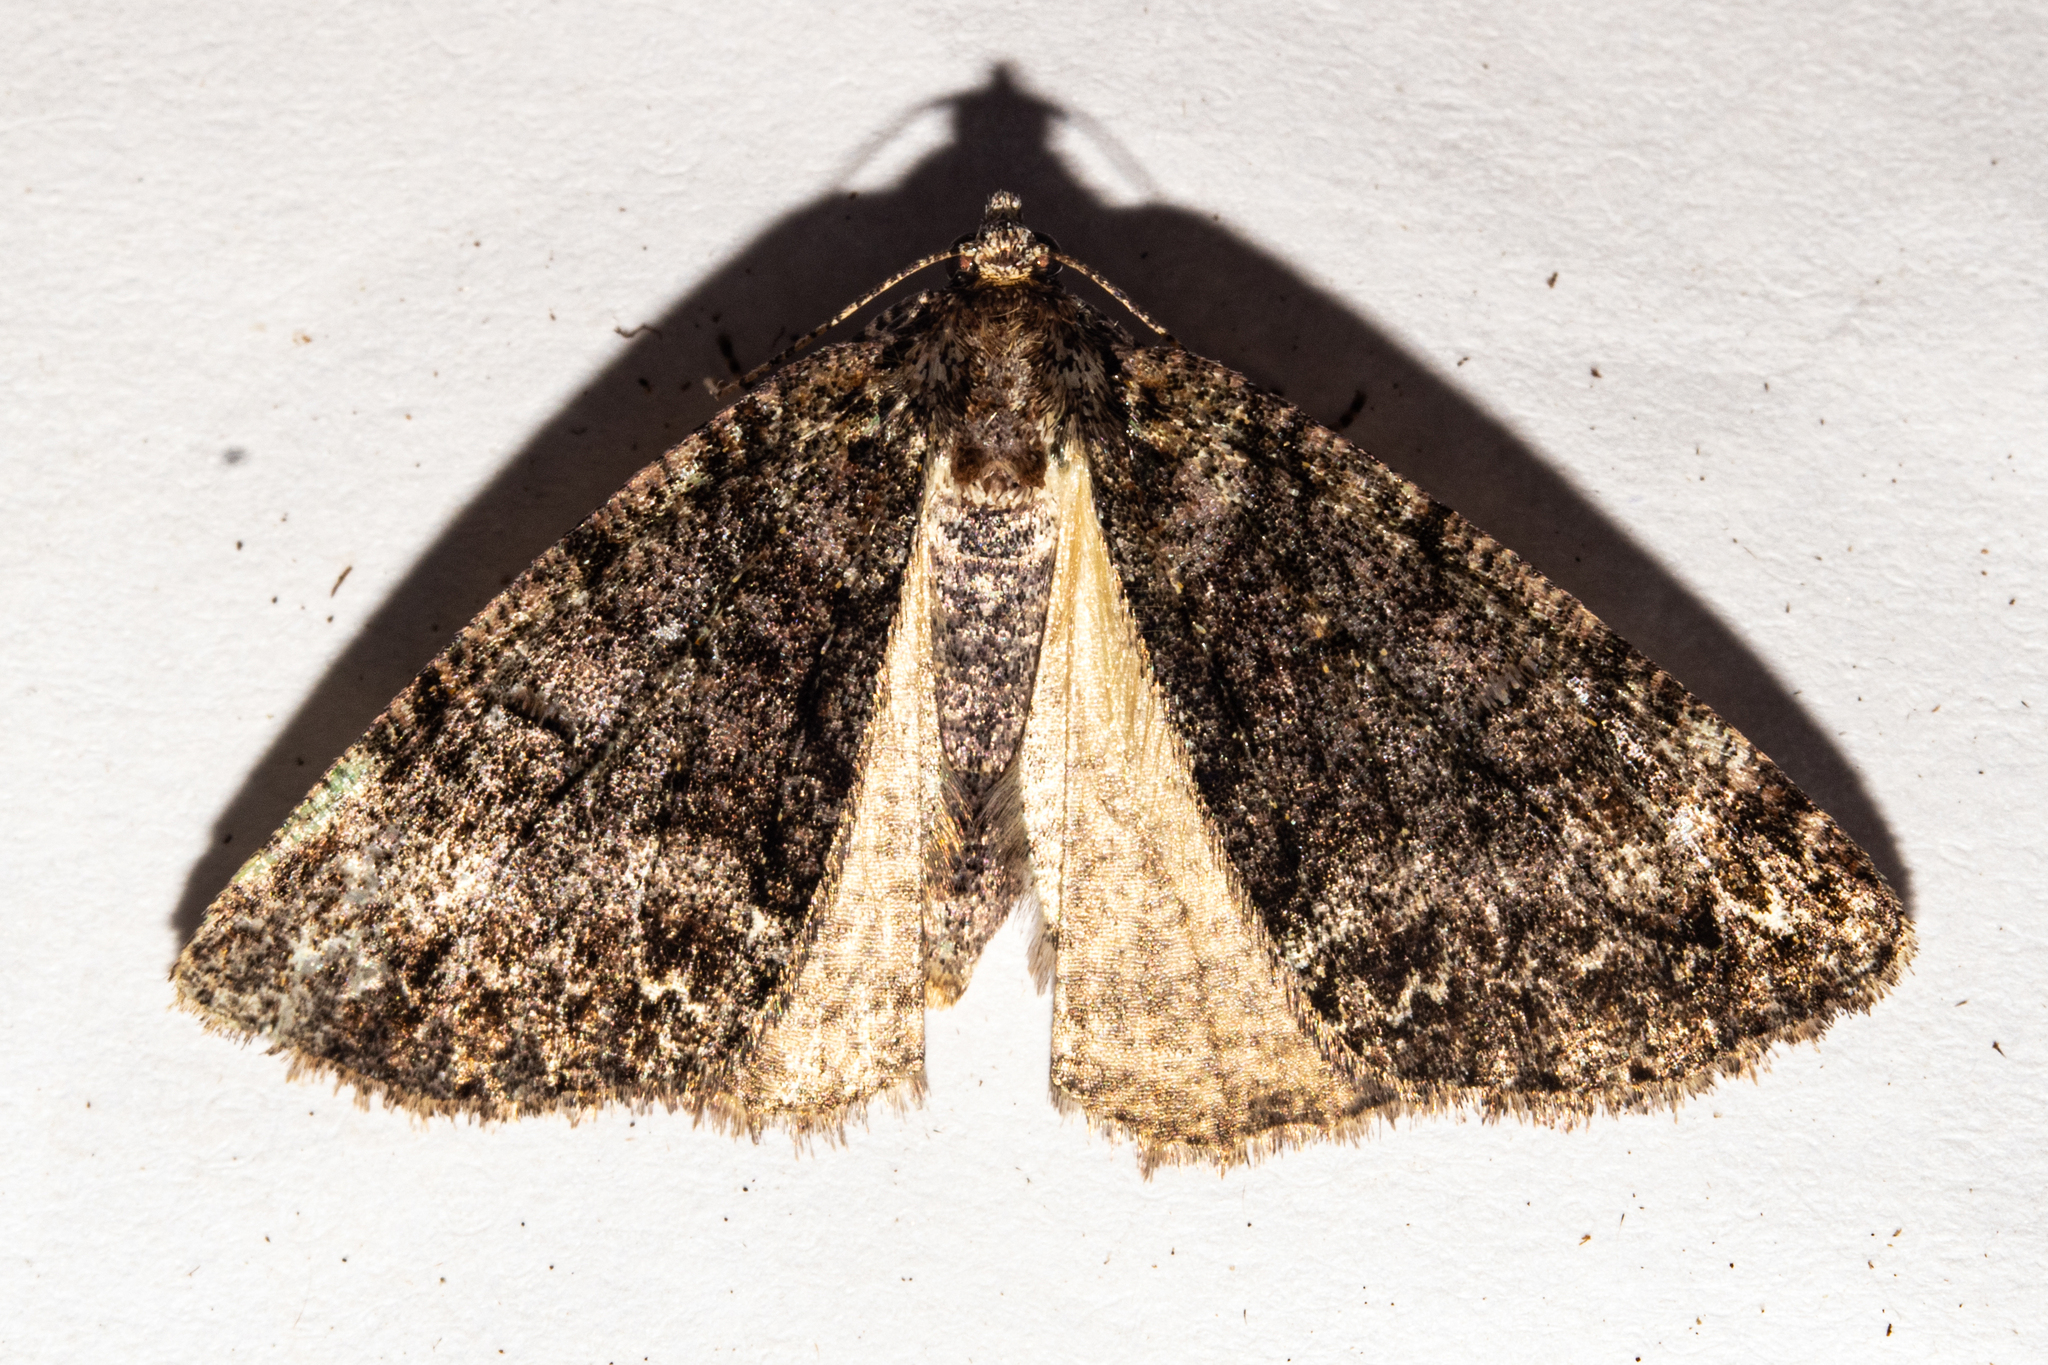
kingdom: Animalia
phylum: Arthropoda
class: Insecta
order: Lepidoptera
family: Geometridae
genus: Pseudocoremia
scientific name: Pseudocoremia suavis
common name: Common forest looper
